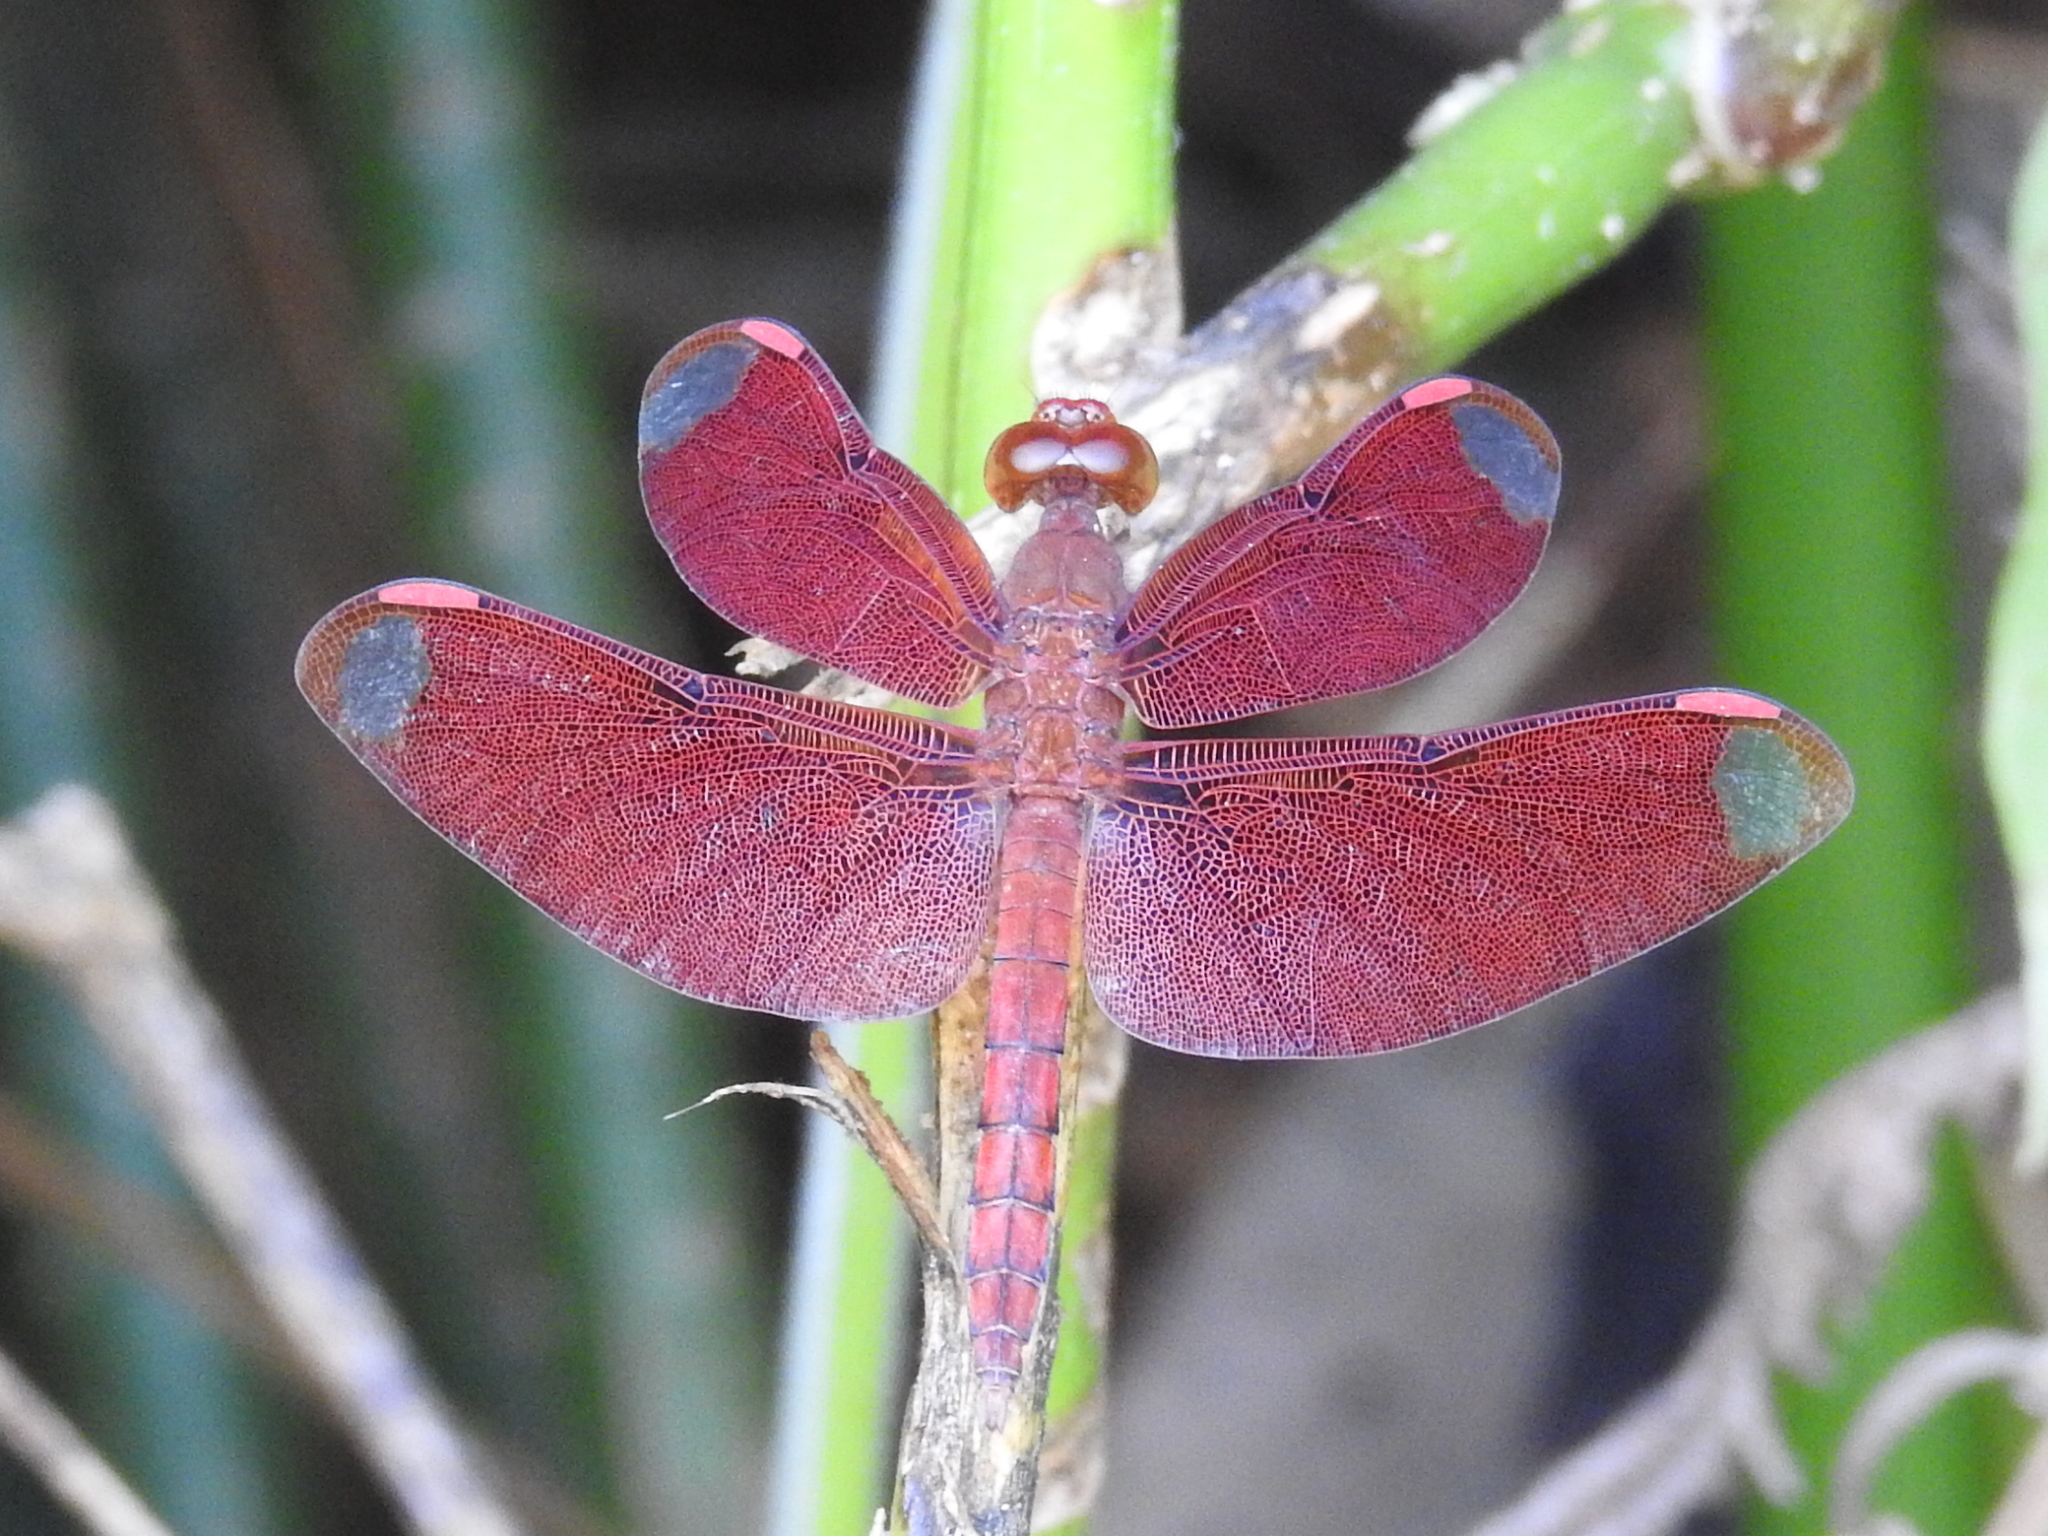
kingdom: Animalia
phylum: Arthropoda
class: Insecta
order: Odonata
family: Libellulidae
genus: Neurothemis
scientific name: Neurothemis fulvia
